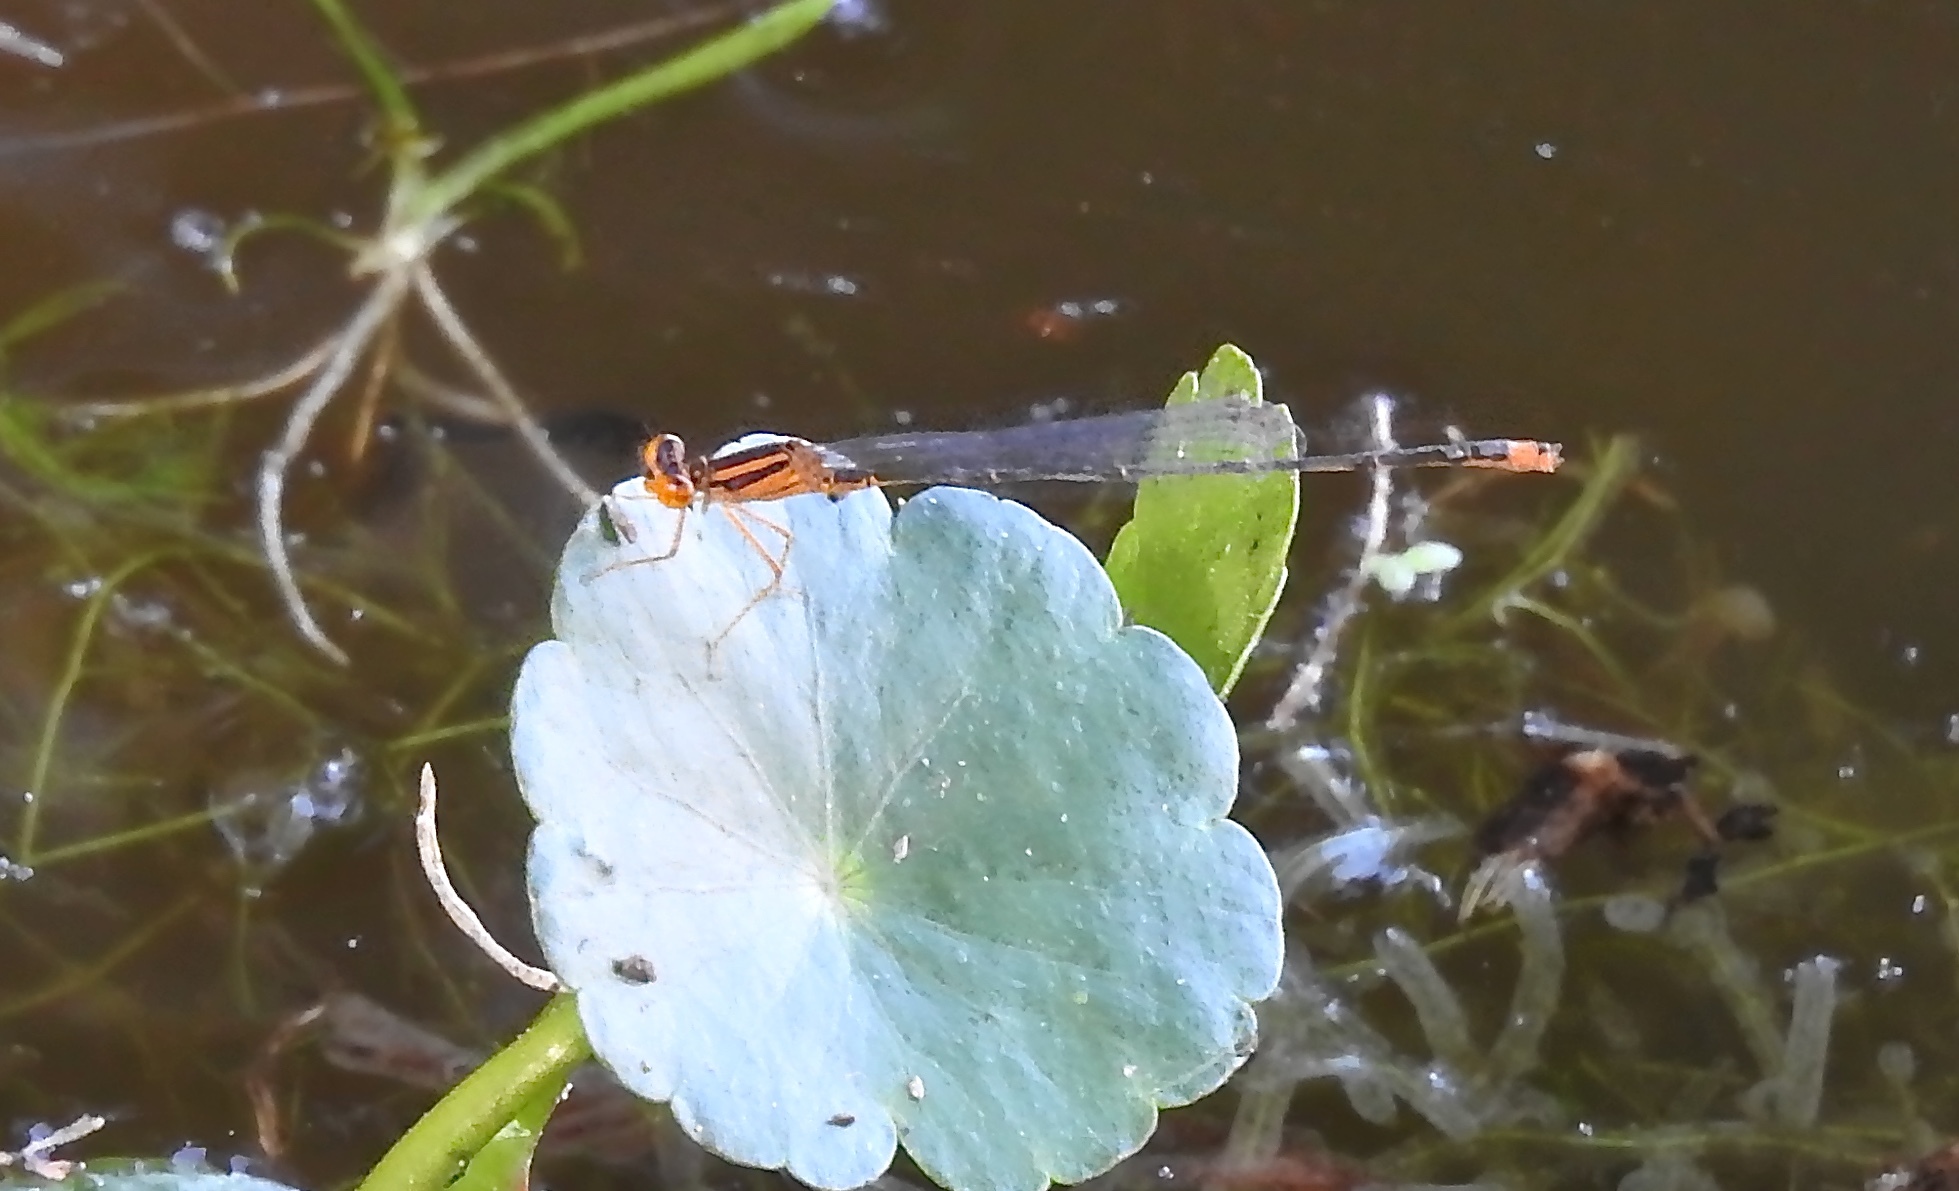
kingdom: Animalia
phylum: Arthropoda
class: Insecta
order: Odonata
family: Coenagrionidae
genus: Enallagma
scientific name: Enallagma pollutum
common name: Florida bluet
